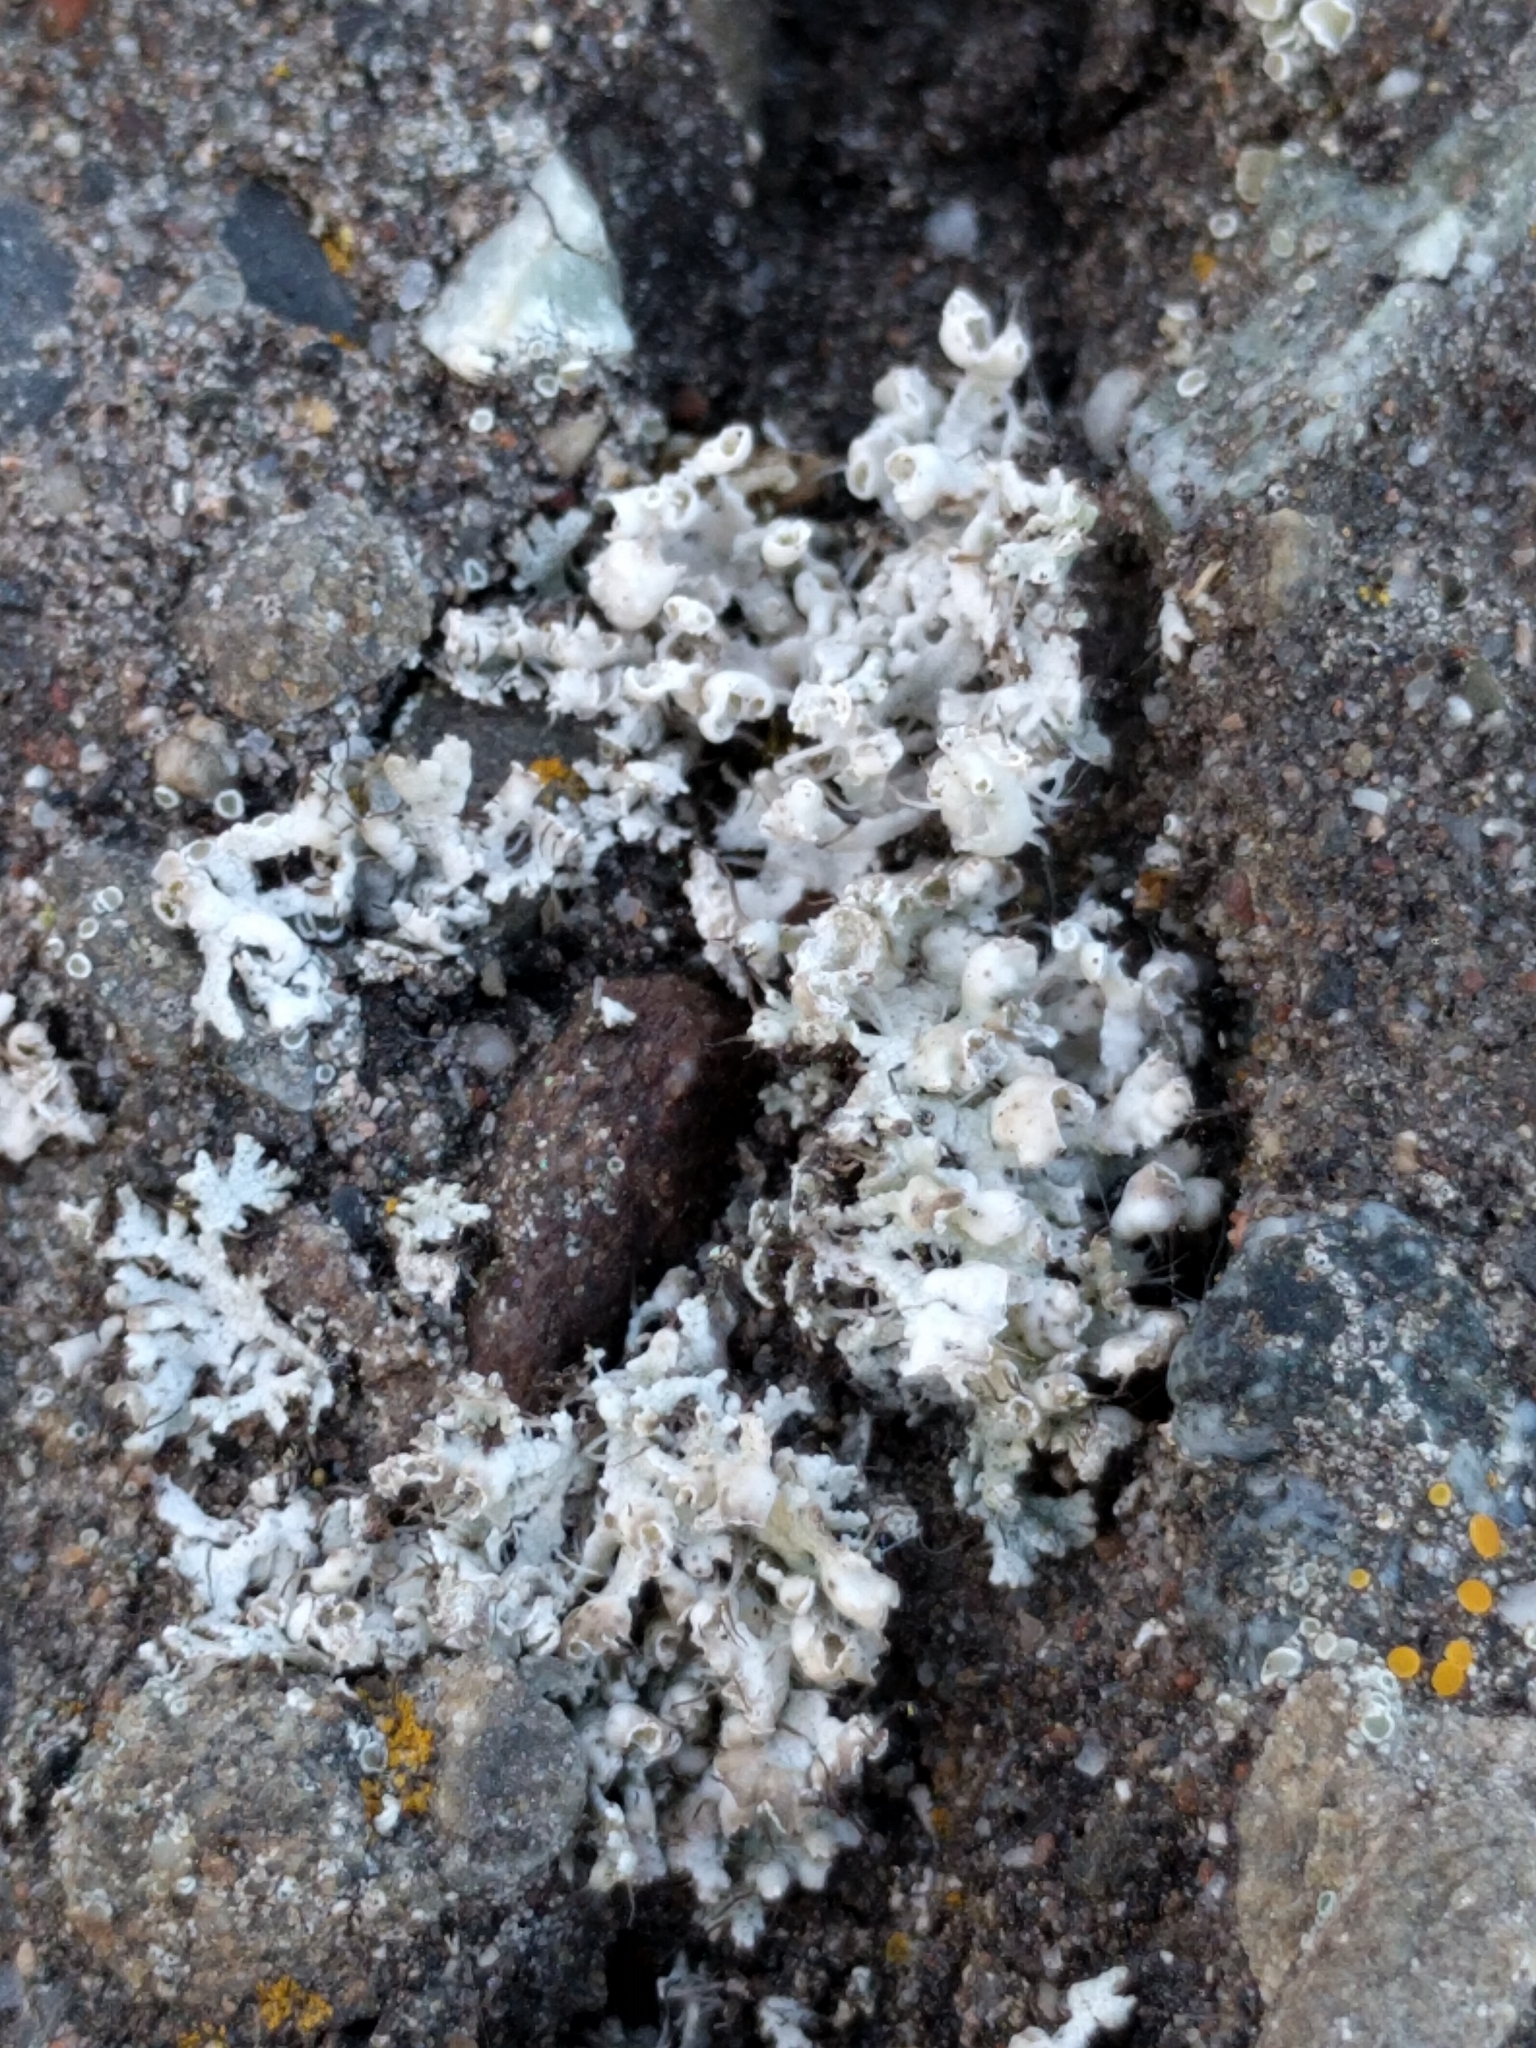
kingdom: Fungi
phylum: Ascomycota
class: Lecanoromycetes
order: Caliciales
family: Physciaceae
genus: Physcia
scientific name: Physcia adscendens
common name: Hooded rosette lichen
